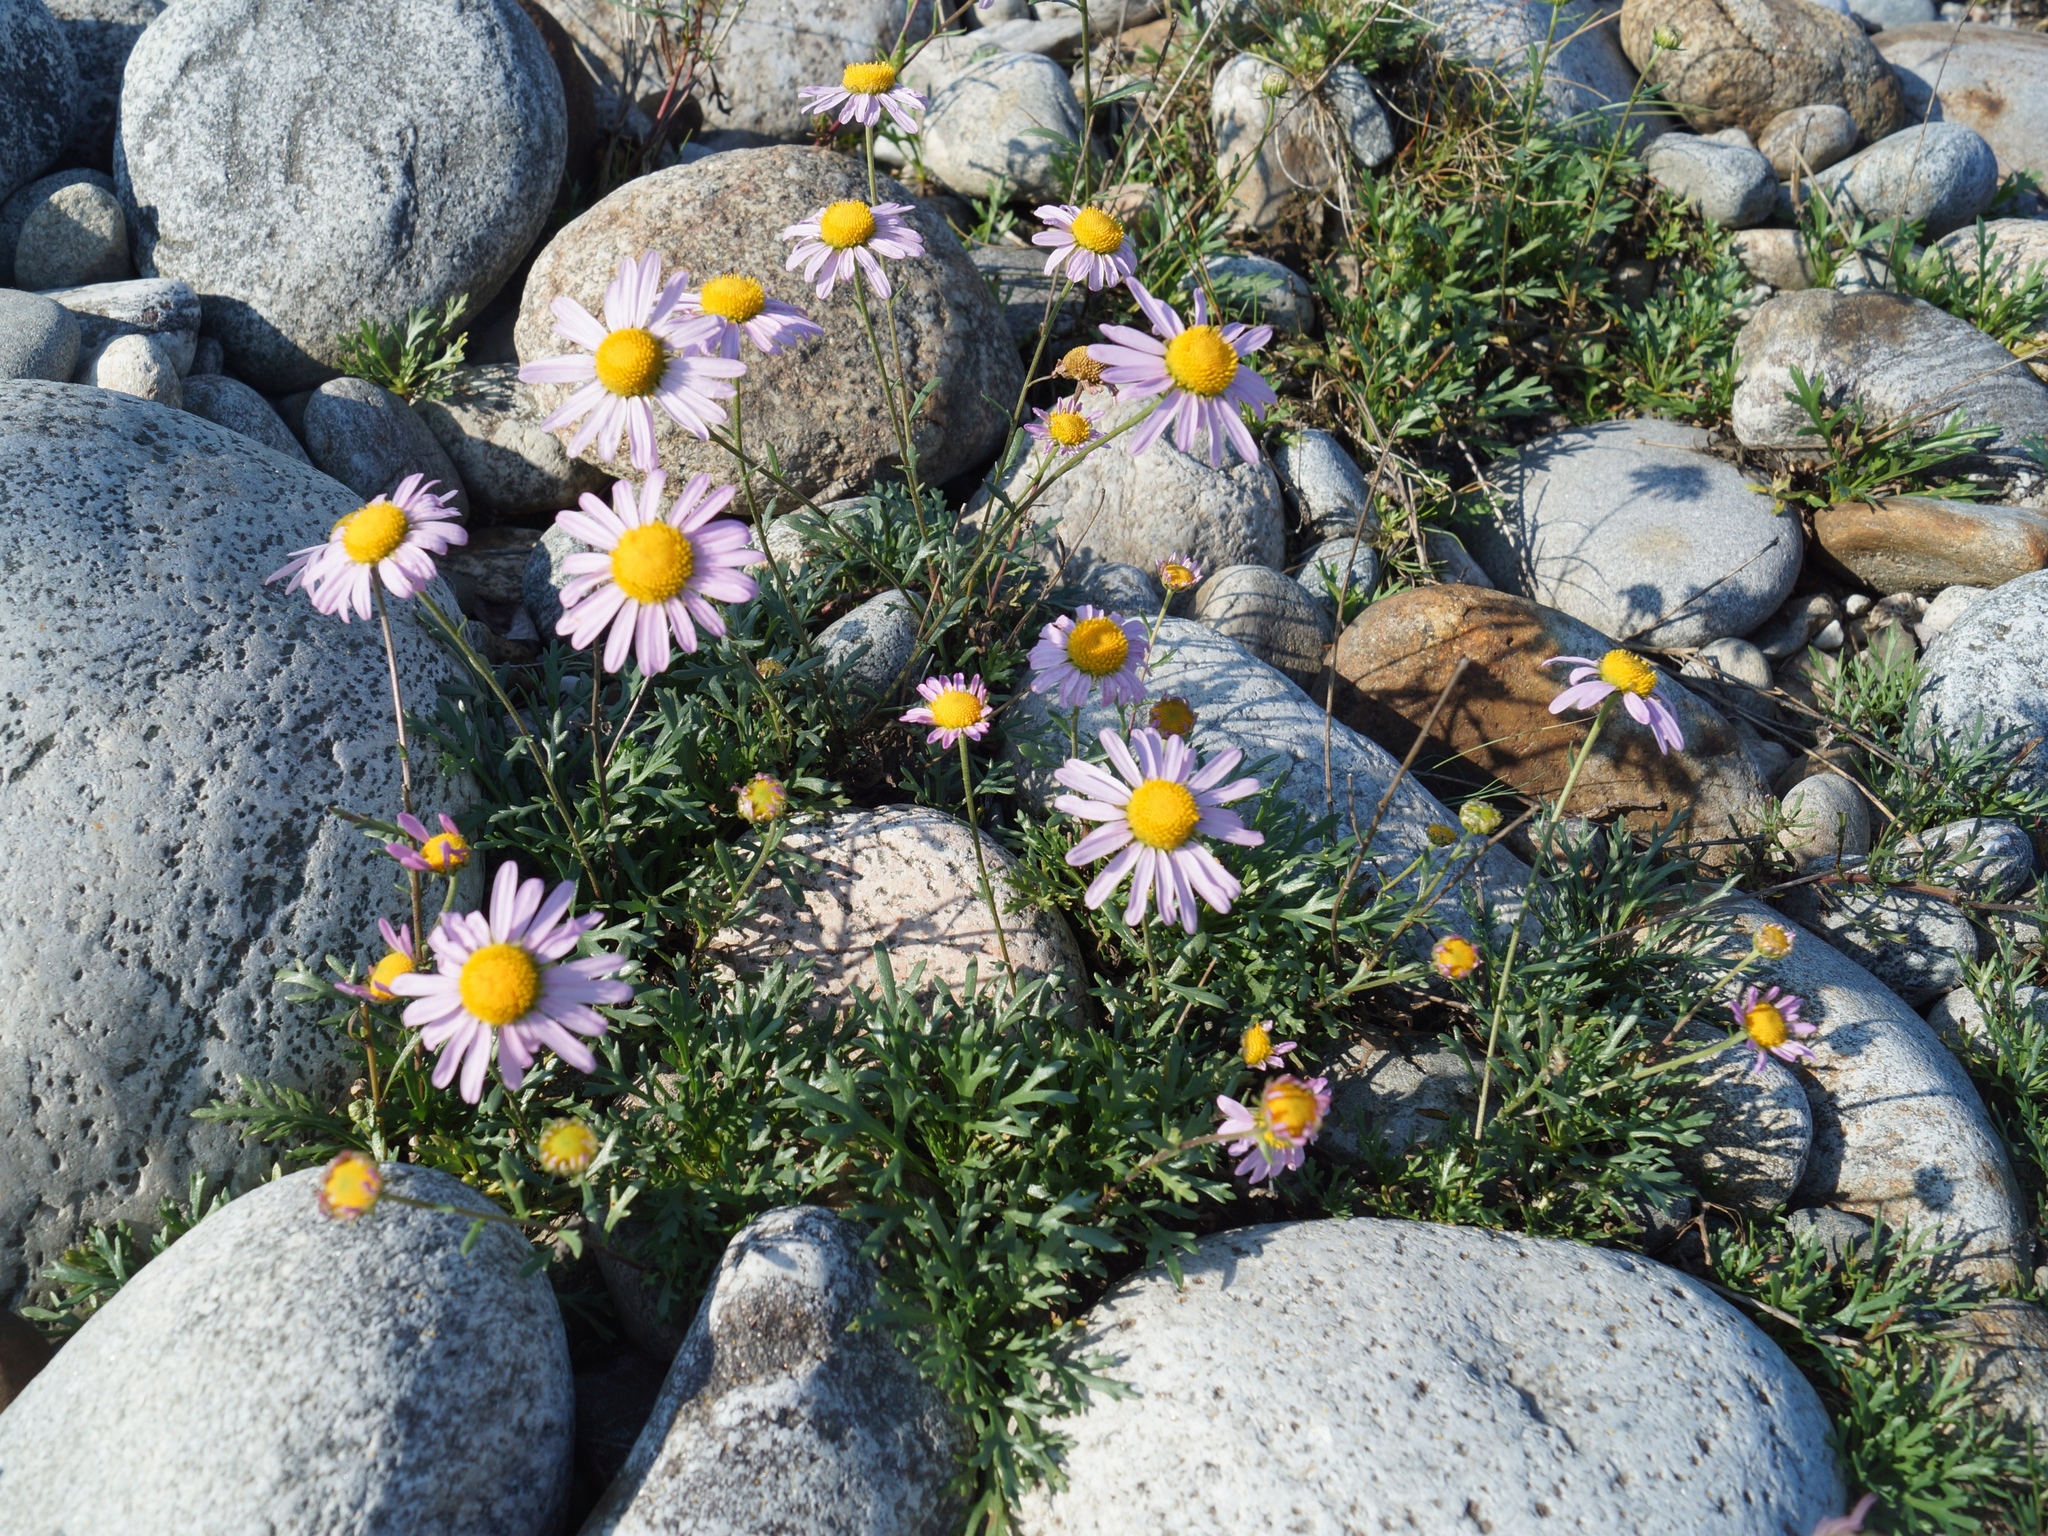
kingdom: Plantae
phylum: Tracheophyta
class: Magnoliopsida
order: Asterales
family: Asteraceae
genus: Chrysanthemum
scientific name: Chrysanthemum zawadzkii
